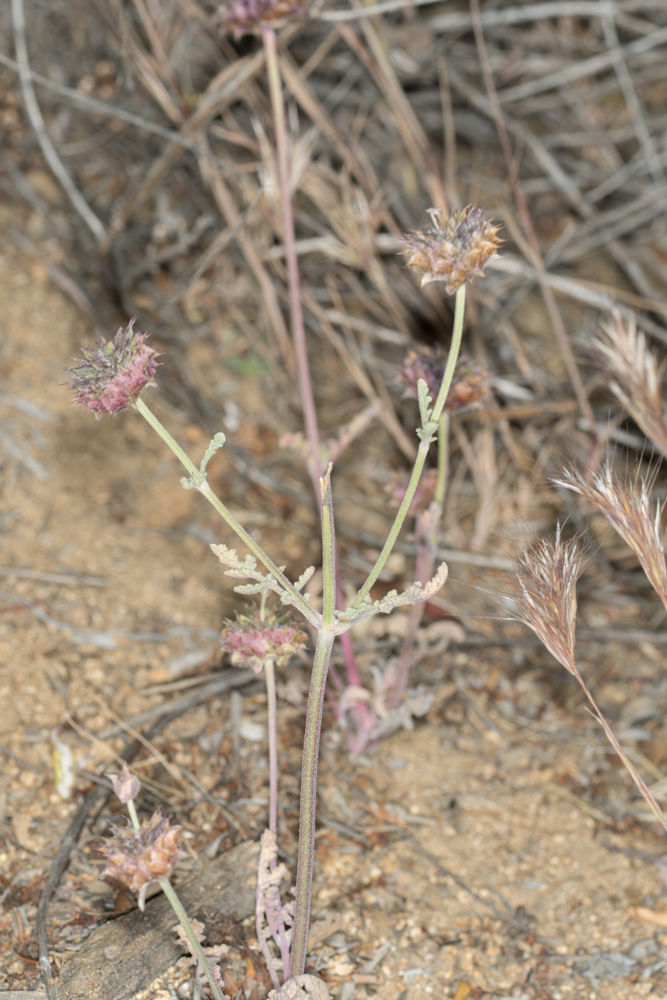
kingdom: Plantae
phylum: Tracheophyta
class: Magnoliopsida
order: Lamiales
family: Lamiaceae
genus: Salvia
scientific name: Salvia columbariae
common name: Chia
